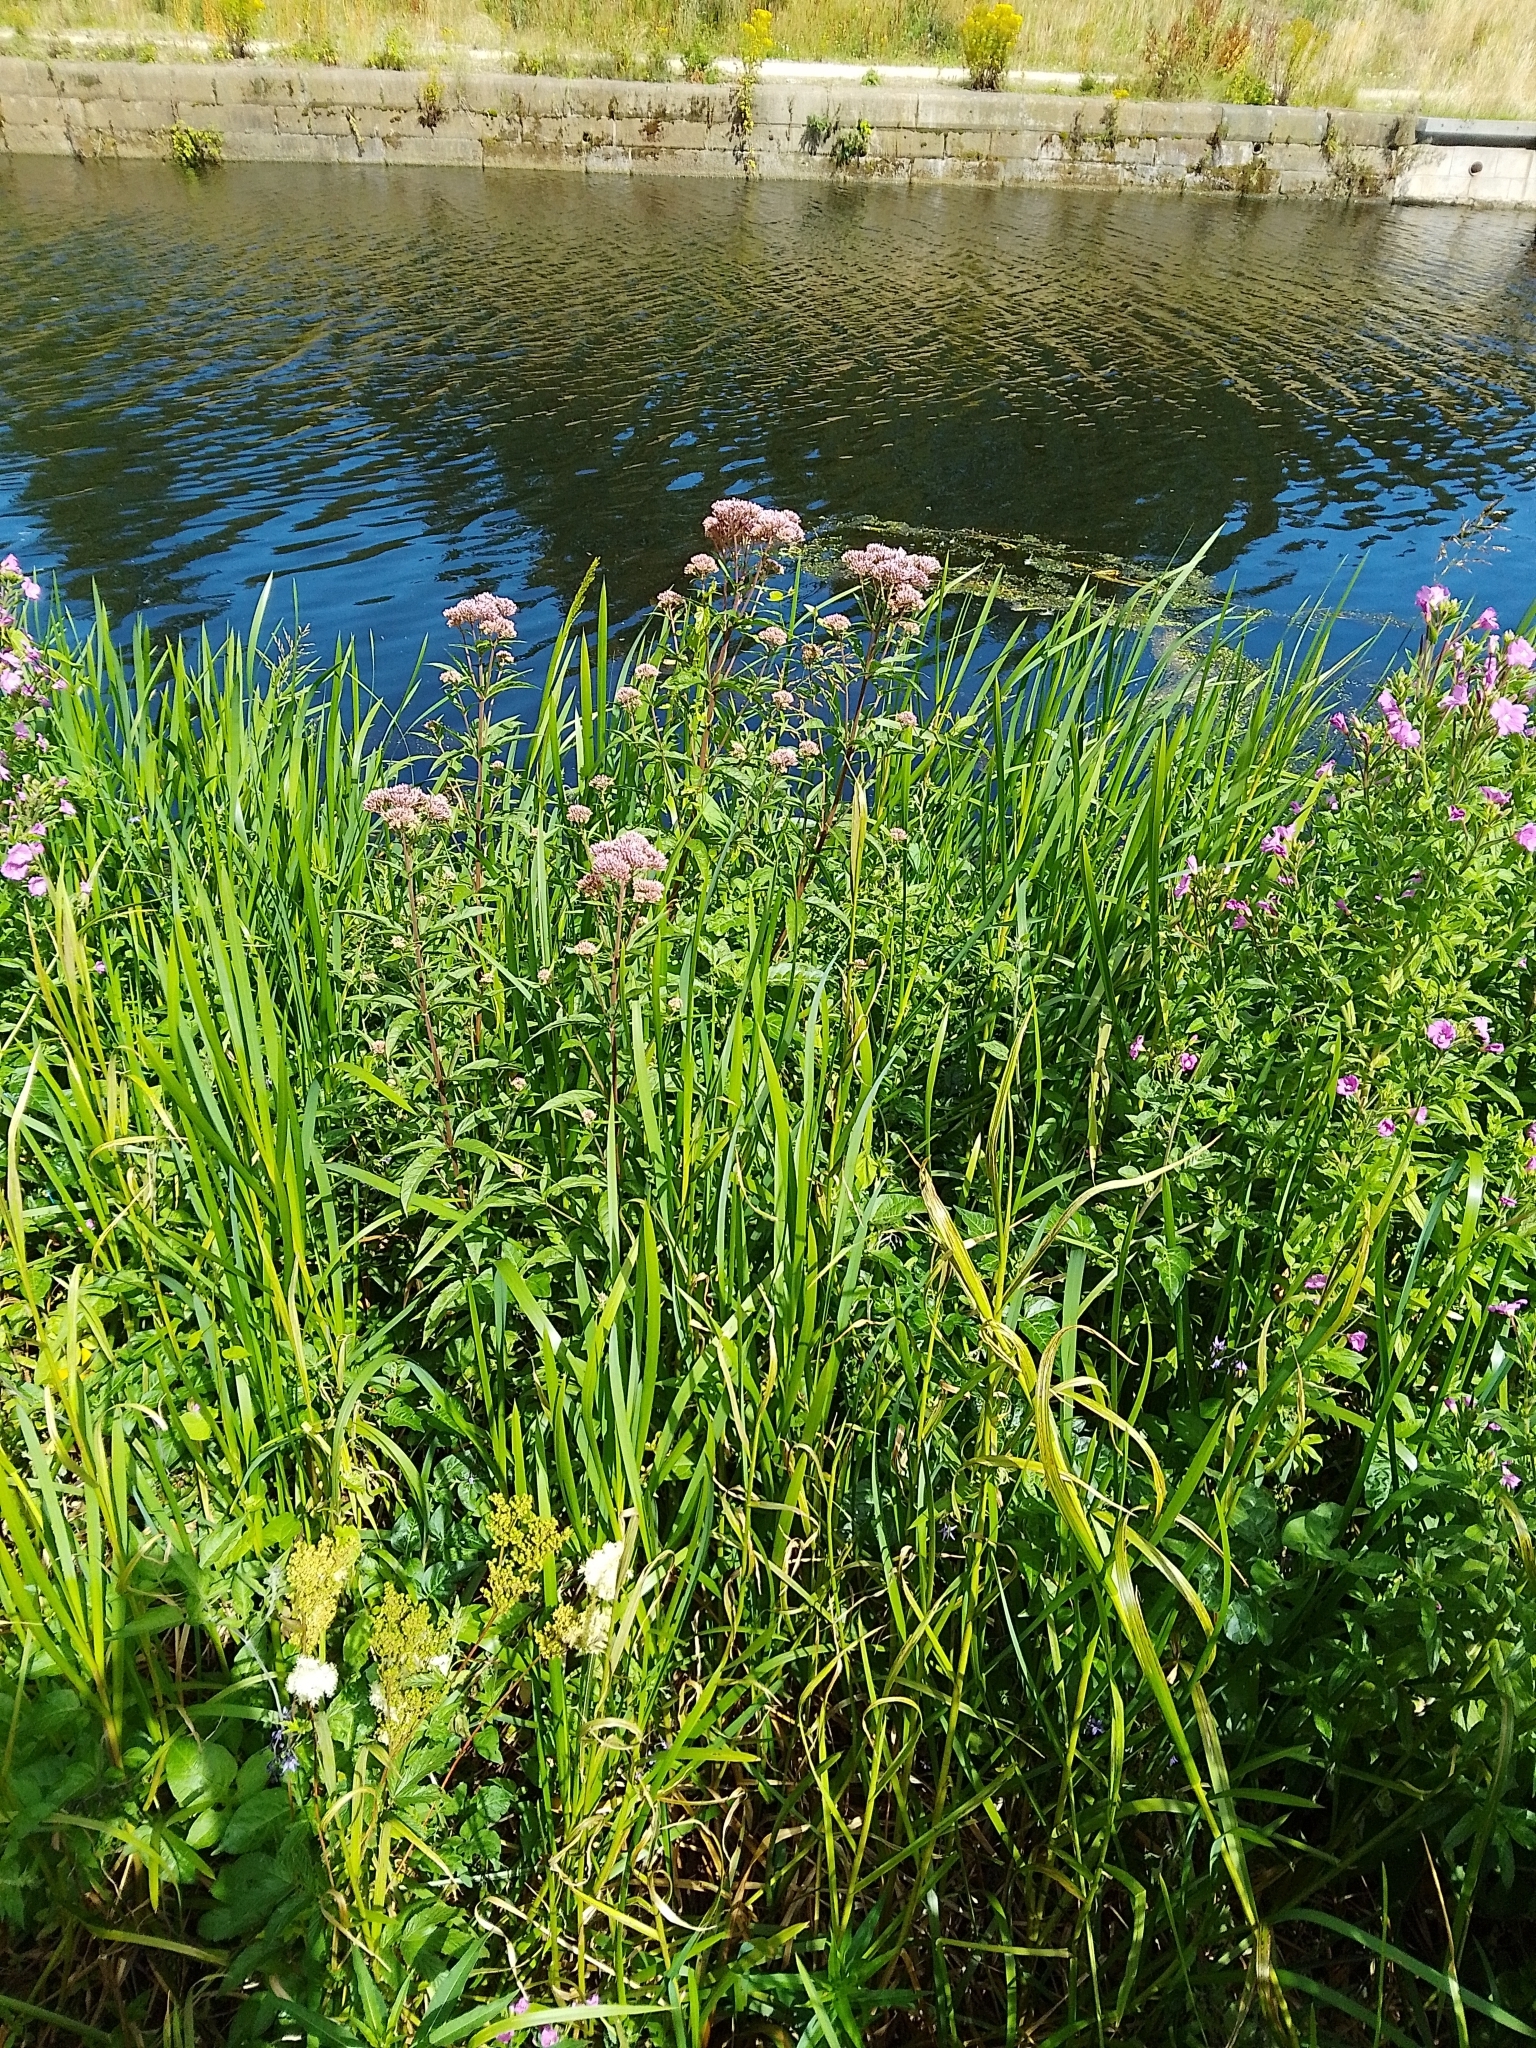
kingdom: Plantae
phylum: Tracheophyta
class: Magnoliopsida
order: Asterales
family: Asteraceae
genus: Eupatorium
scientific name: Eupatorium cannabinum
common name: Hemp-agrimony
